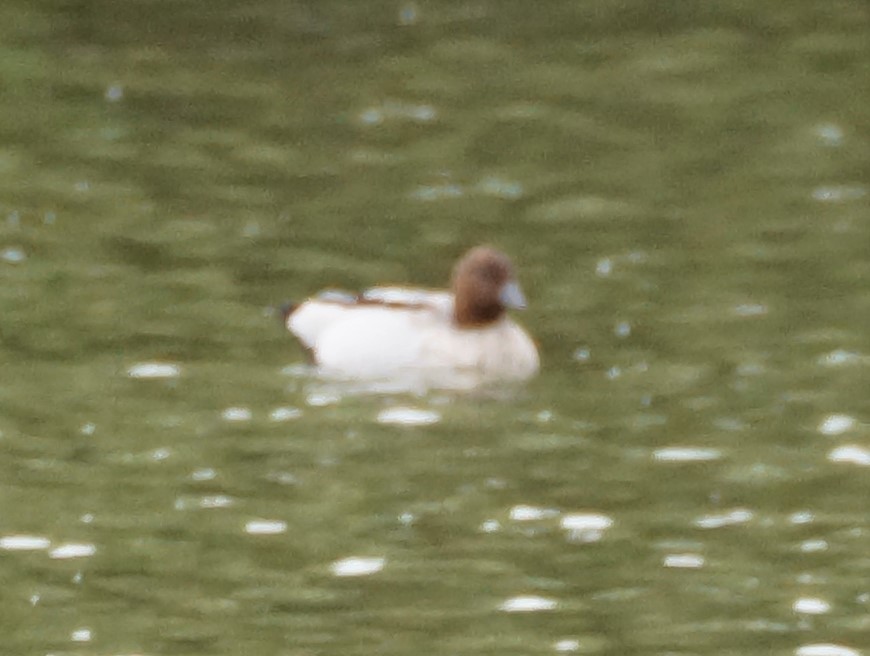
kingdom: Animalia
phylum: Chordata
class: Aves
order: Anseriformes
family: Anatidae
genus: Chenonetta
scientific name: Chenonetta jubata
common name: Maned duck
